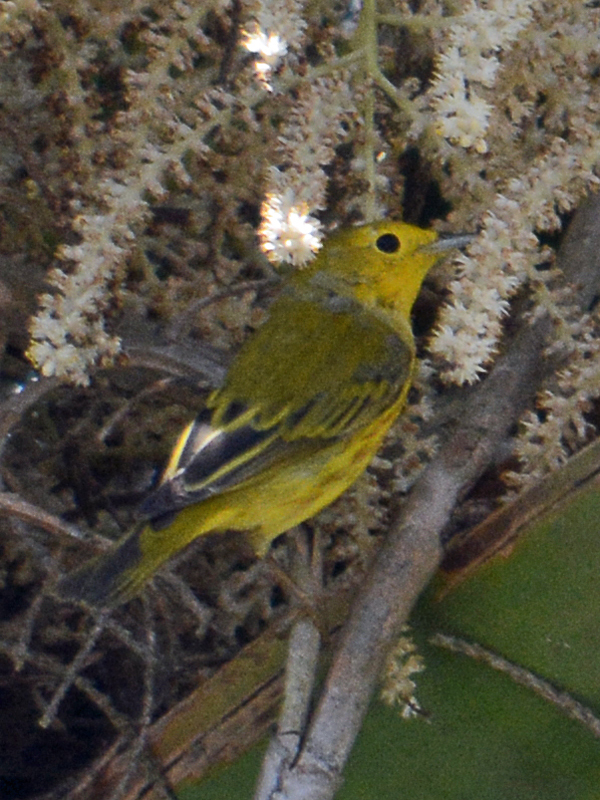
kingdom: Animalia
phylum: Chordata
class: Aves
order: Passeriformes
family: Parulidae
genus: Setophaga
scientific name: Setophaga petechia
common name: Yellow warbler
